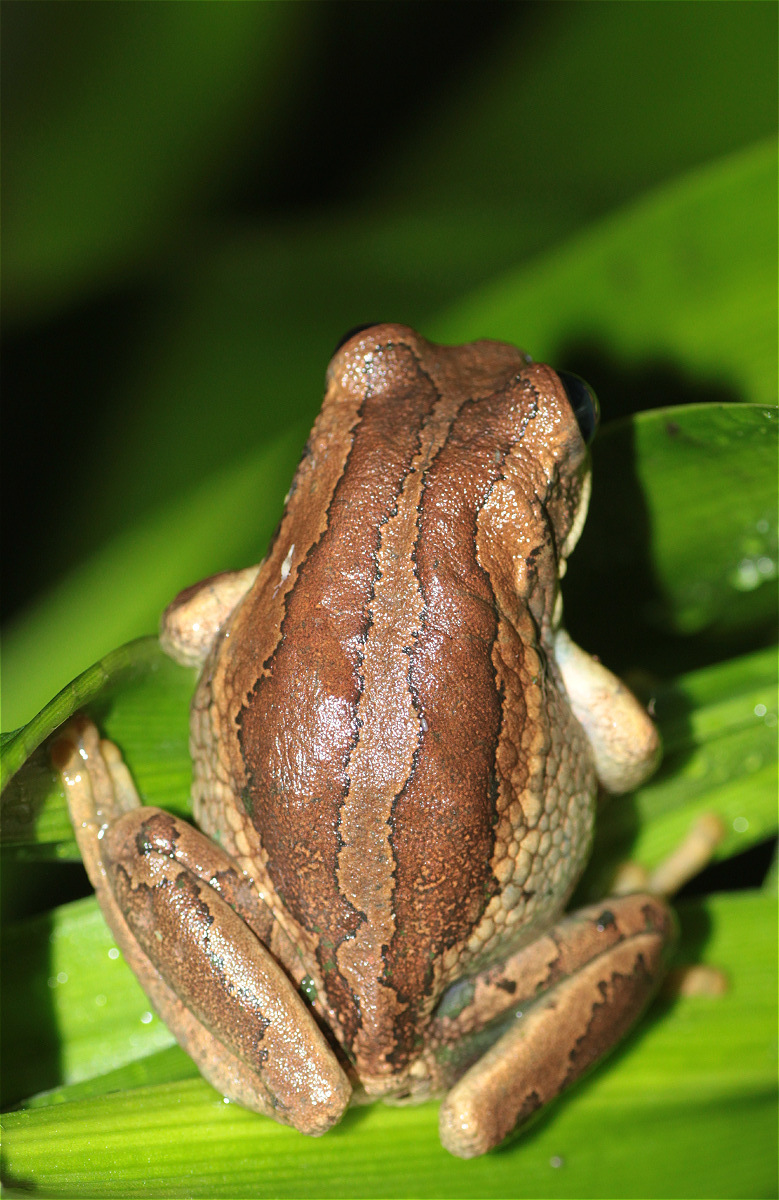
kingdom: Animalia
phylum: Chordata
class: Amphibia
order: Anura
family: Hemiphractidae
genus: Gastrotheca
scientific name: Gastrotheca cuencana
